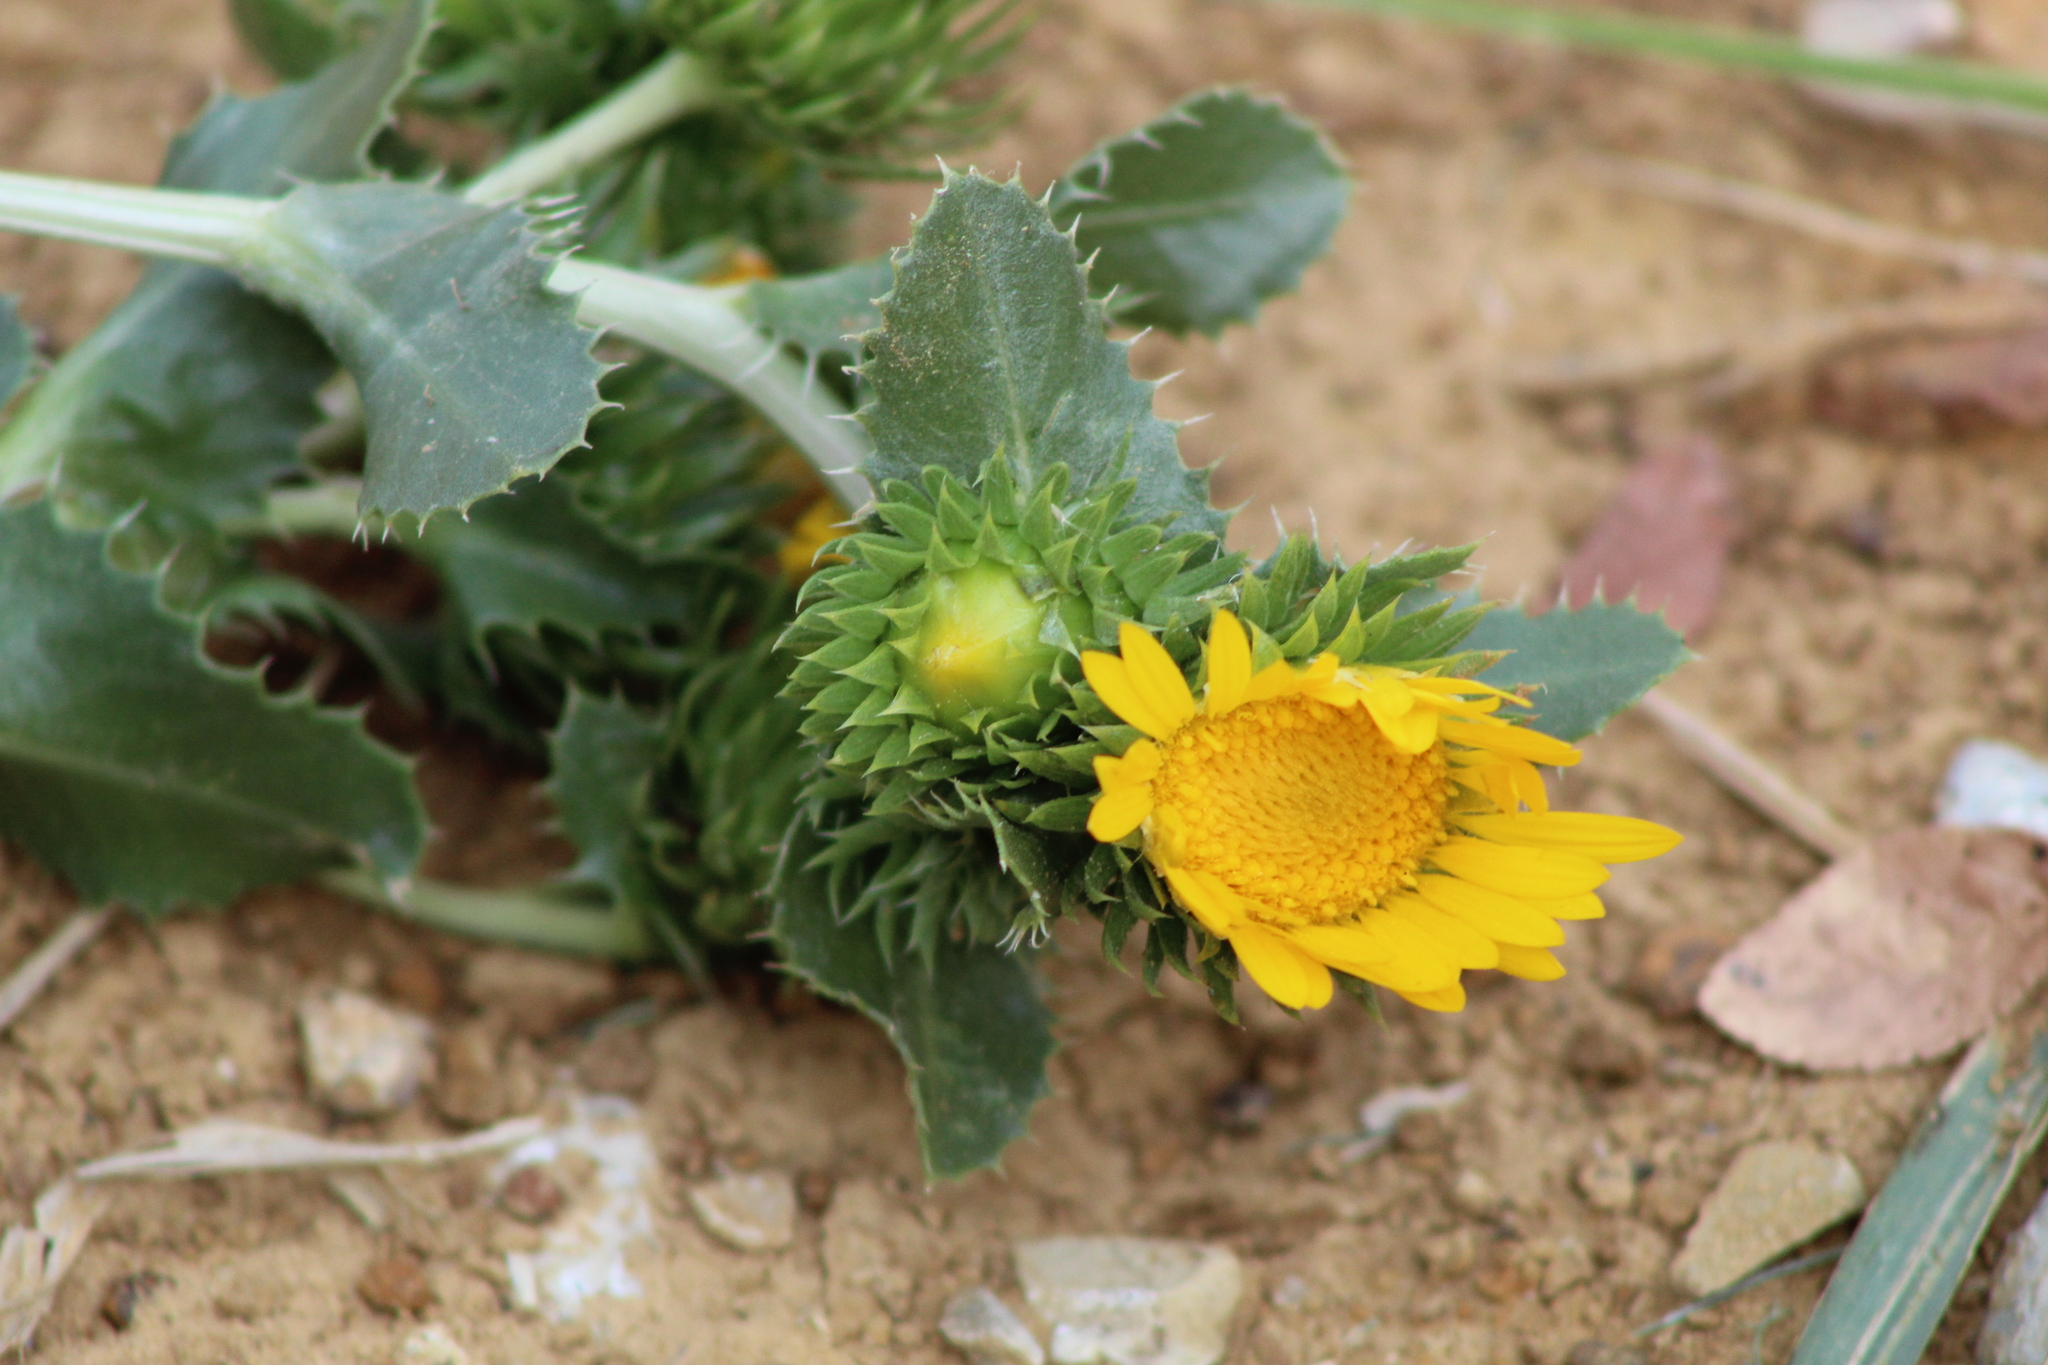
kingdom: Plantae
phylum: Tracheophyta
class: Magnoliopsida
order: Asterales
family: Asteraceae
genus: Grindelia
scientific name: Grindelia ciliata
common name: Goldenweed
